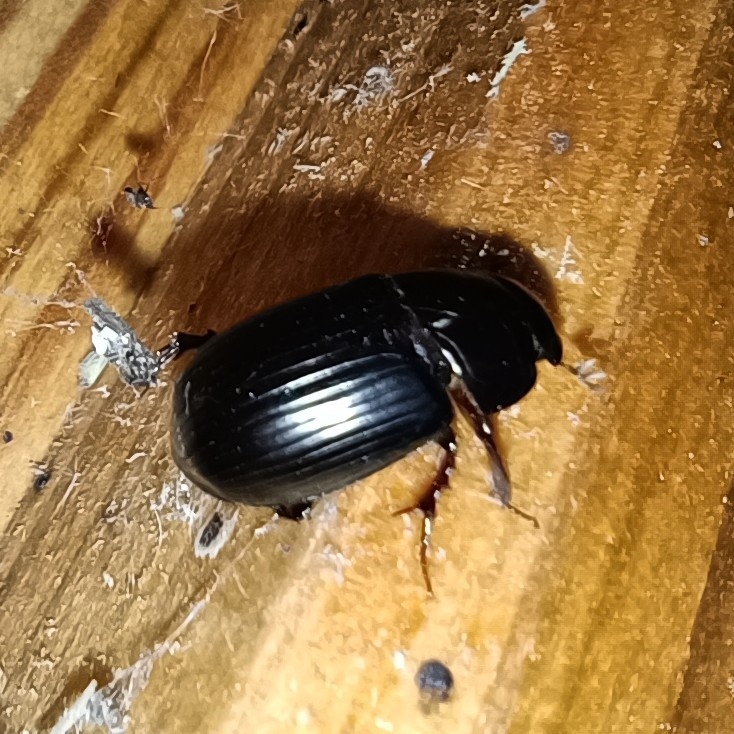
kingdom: Animalia
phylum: Arthropoda
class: Insecta
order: Coleoptera
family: Scarabaeidae
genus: Acrossus
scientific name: Acrossus rufipes
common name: Night-flying dung beetle
